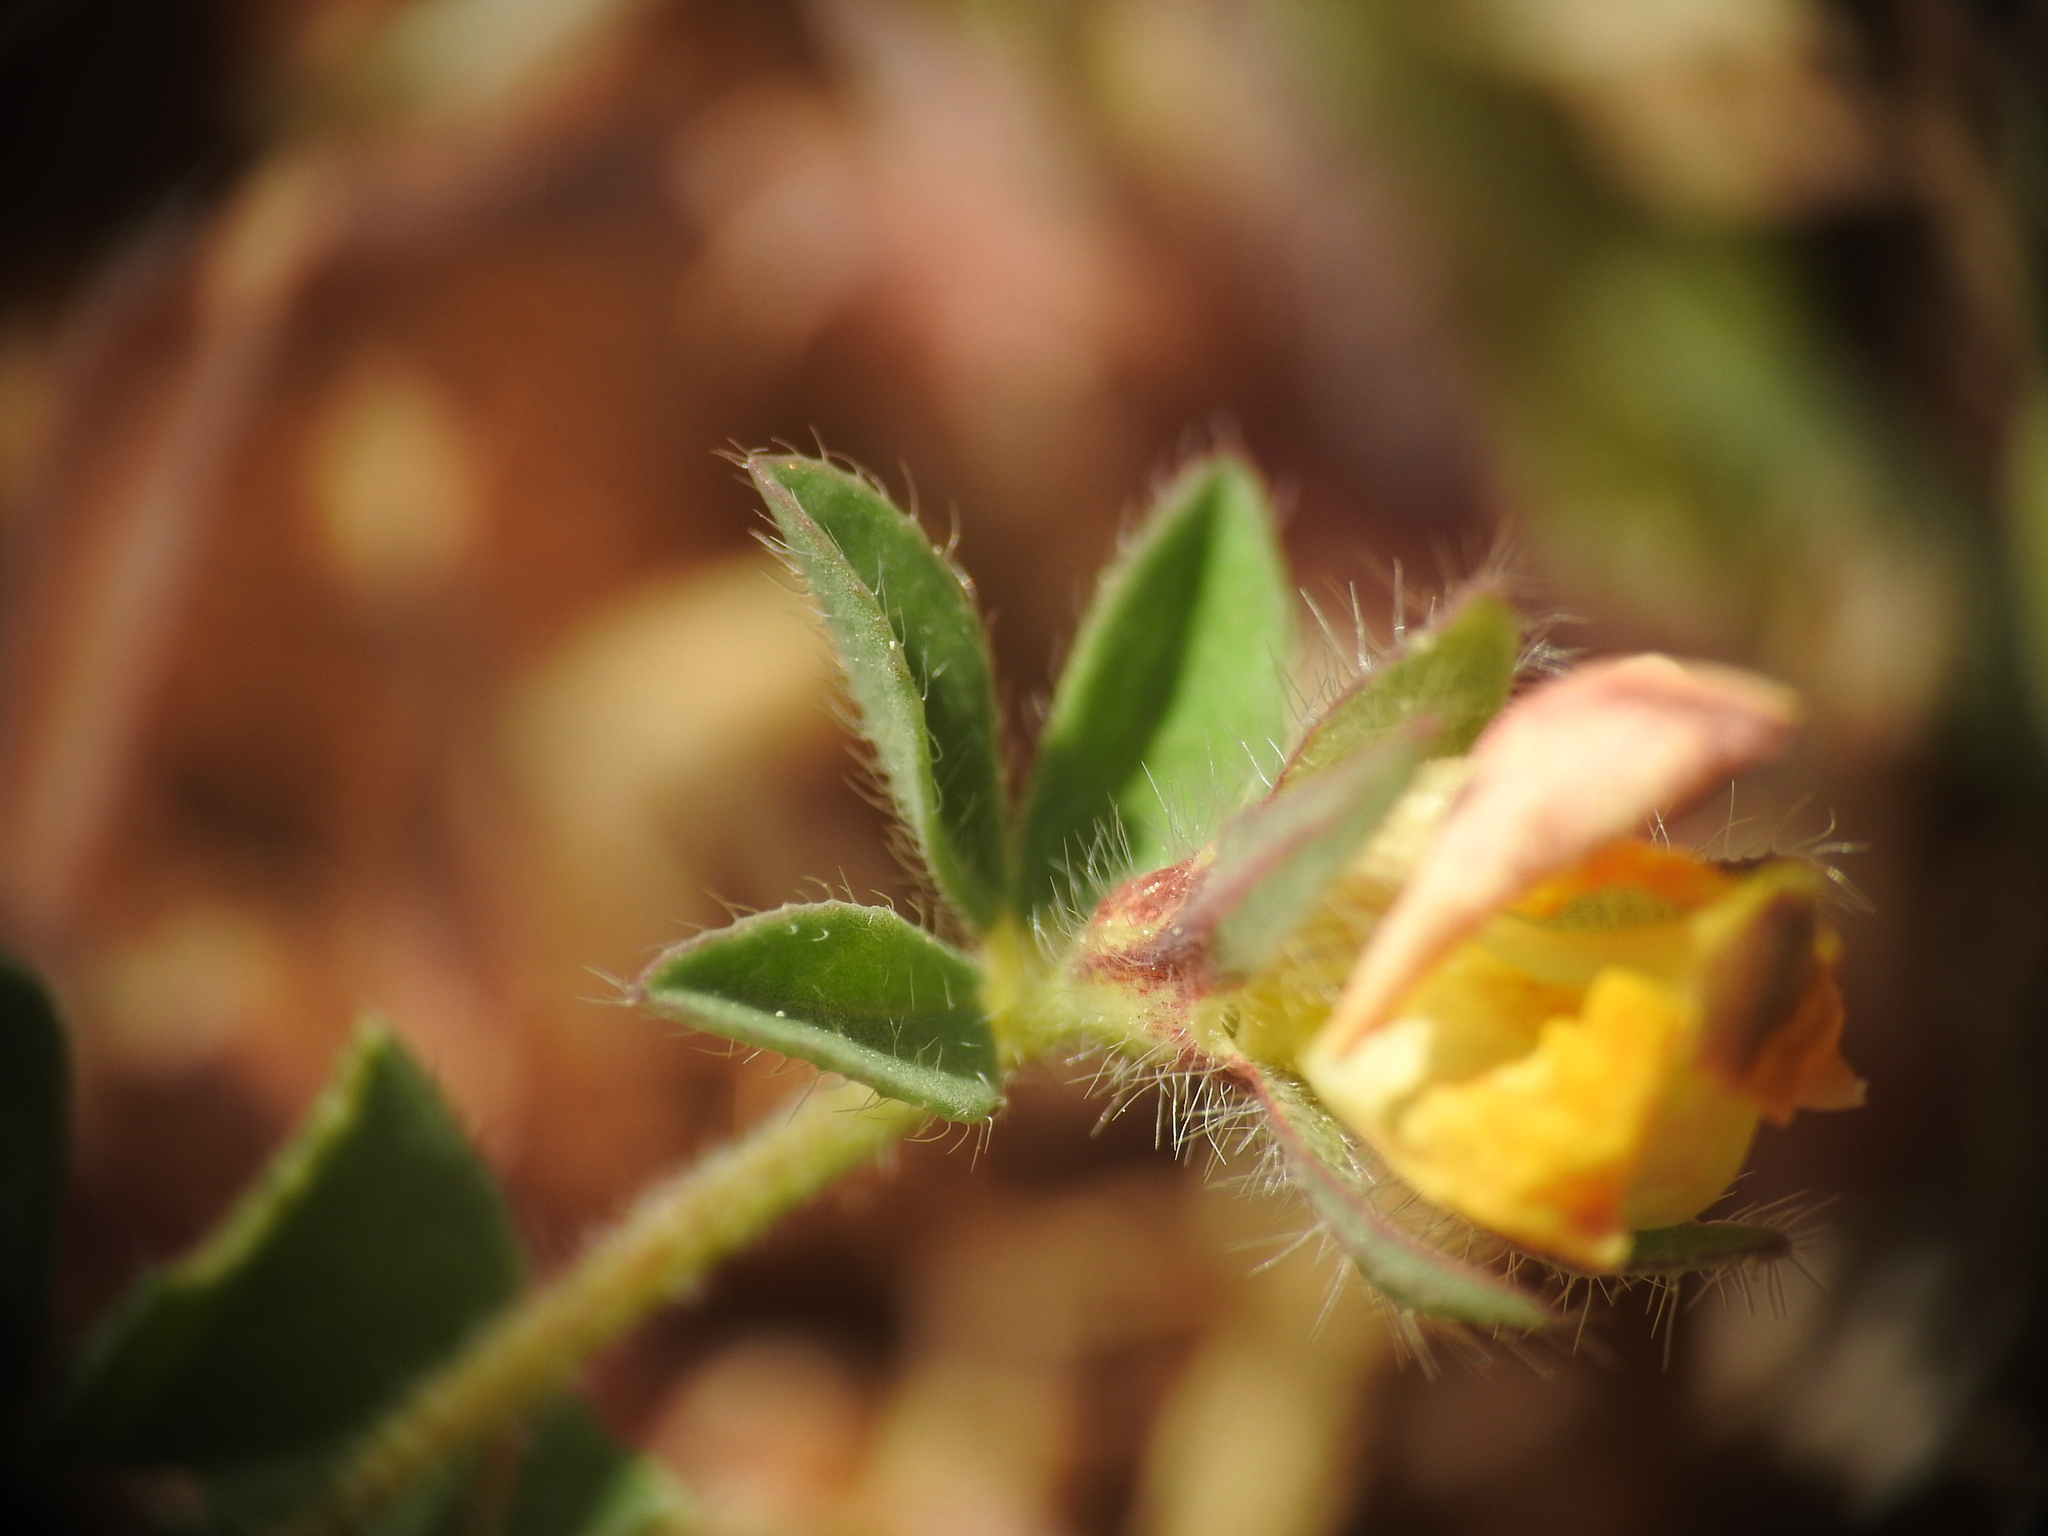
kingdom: Plantae
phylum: Tracheophyta
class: Magnoliopsida
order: Fabales
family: Fabaceae
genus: Lotus
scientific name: Lotus edulis
